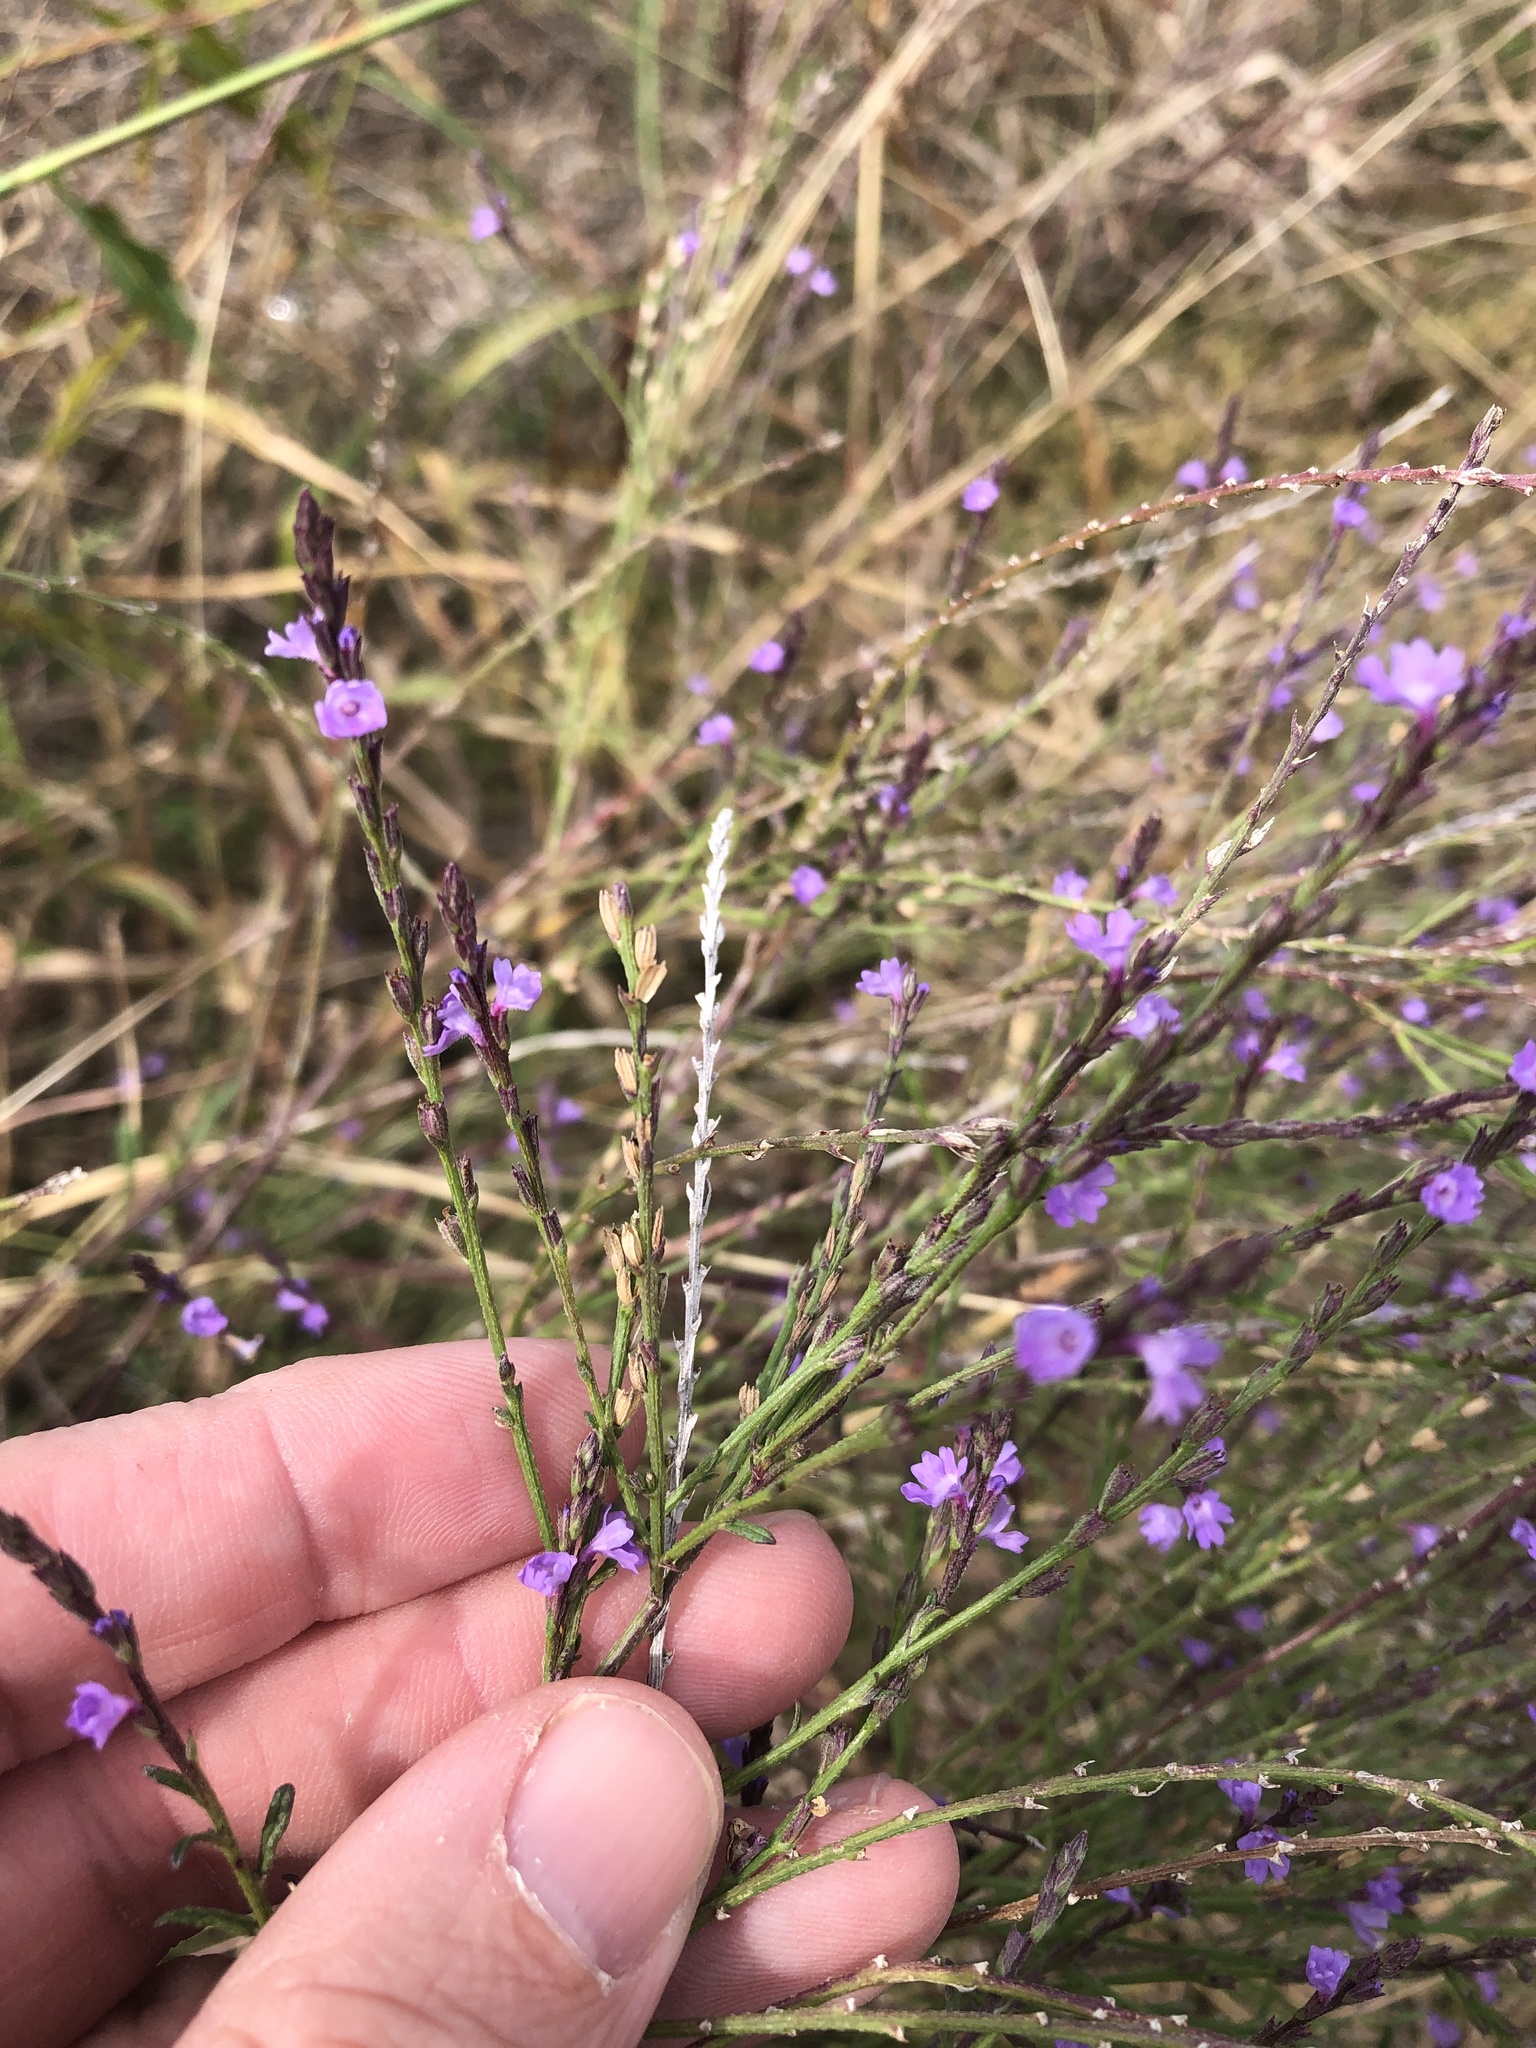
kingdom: Plantae
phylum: Tracheophyta
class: Magnoliopsida
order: Lamiales
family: Verbenaceae
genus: Verbena
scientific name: Verbena halei
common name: Texas vervain
